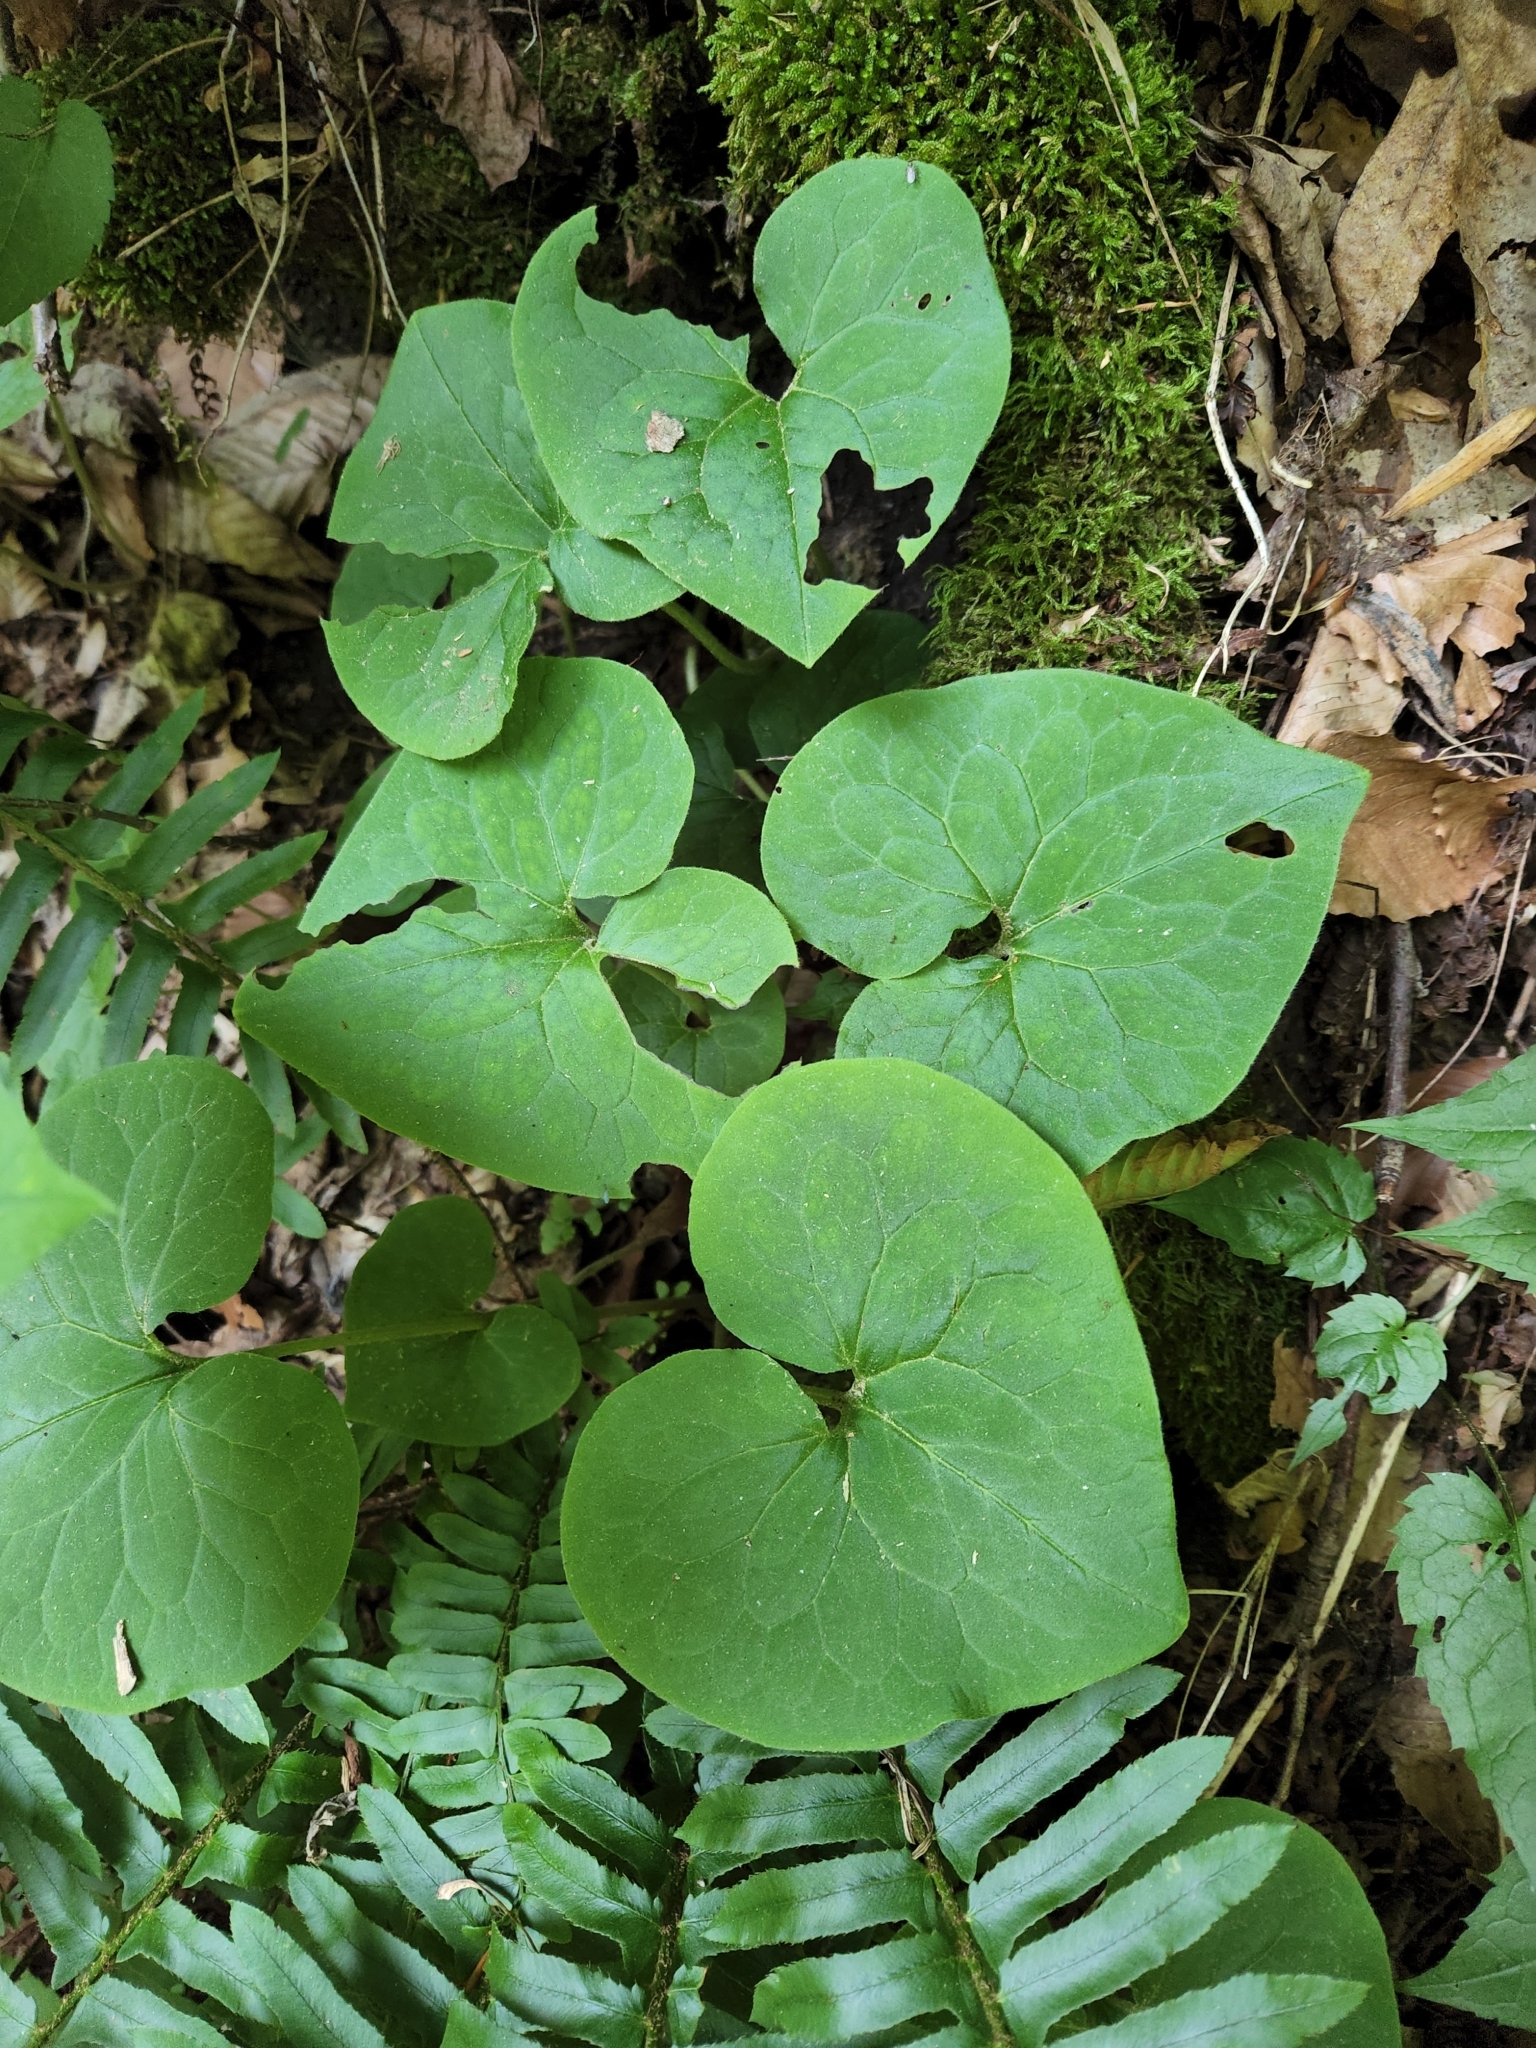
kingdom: Plantae
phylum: Tracheophyta
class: Magnoliopsida
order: Piperales
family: Aristolochiaceae
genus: Asarum
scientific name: Asarum canadense
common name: Wild ginger
